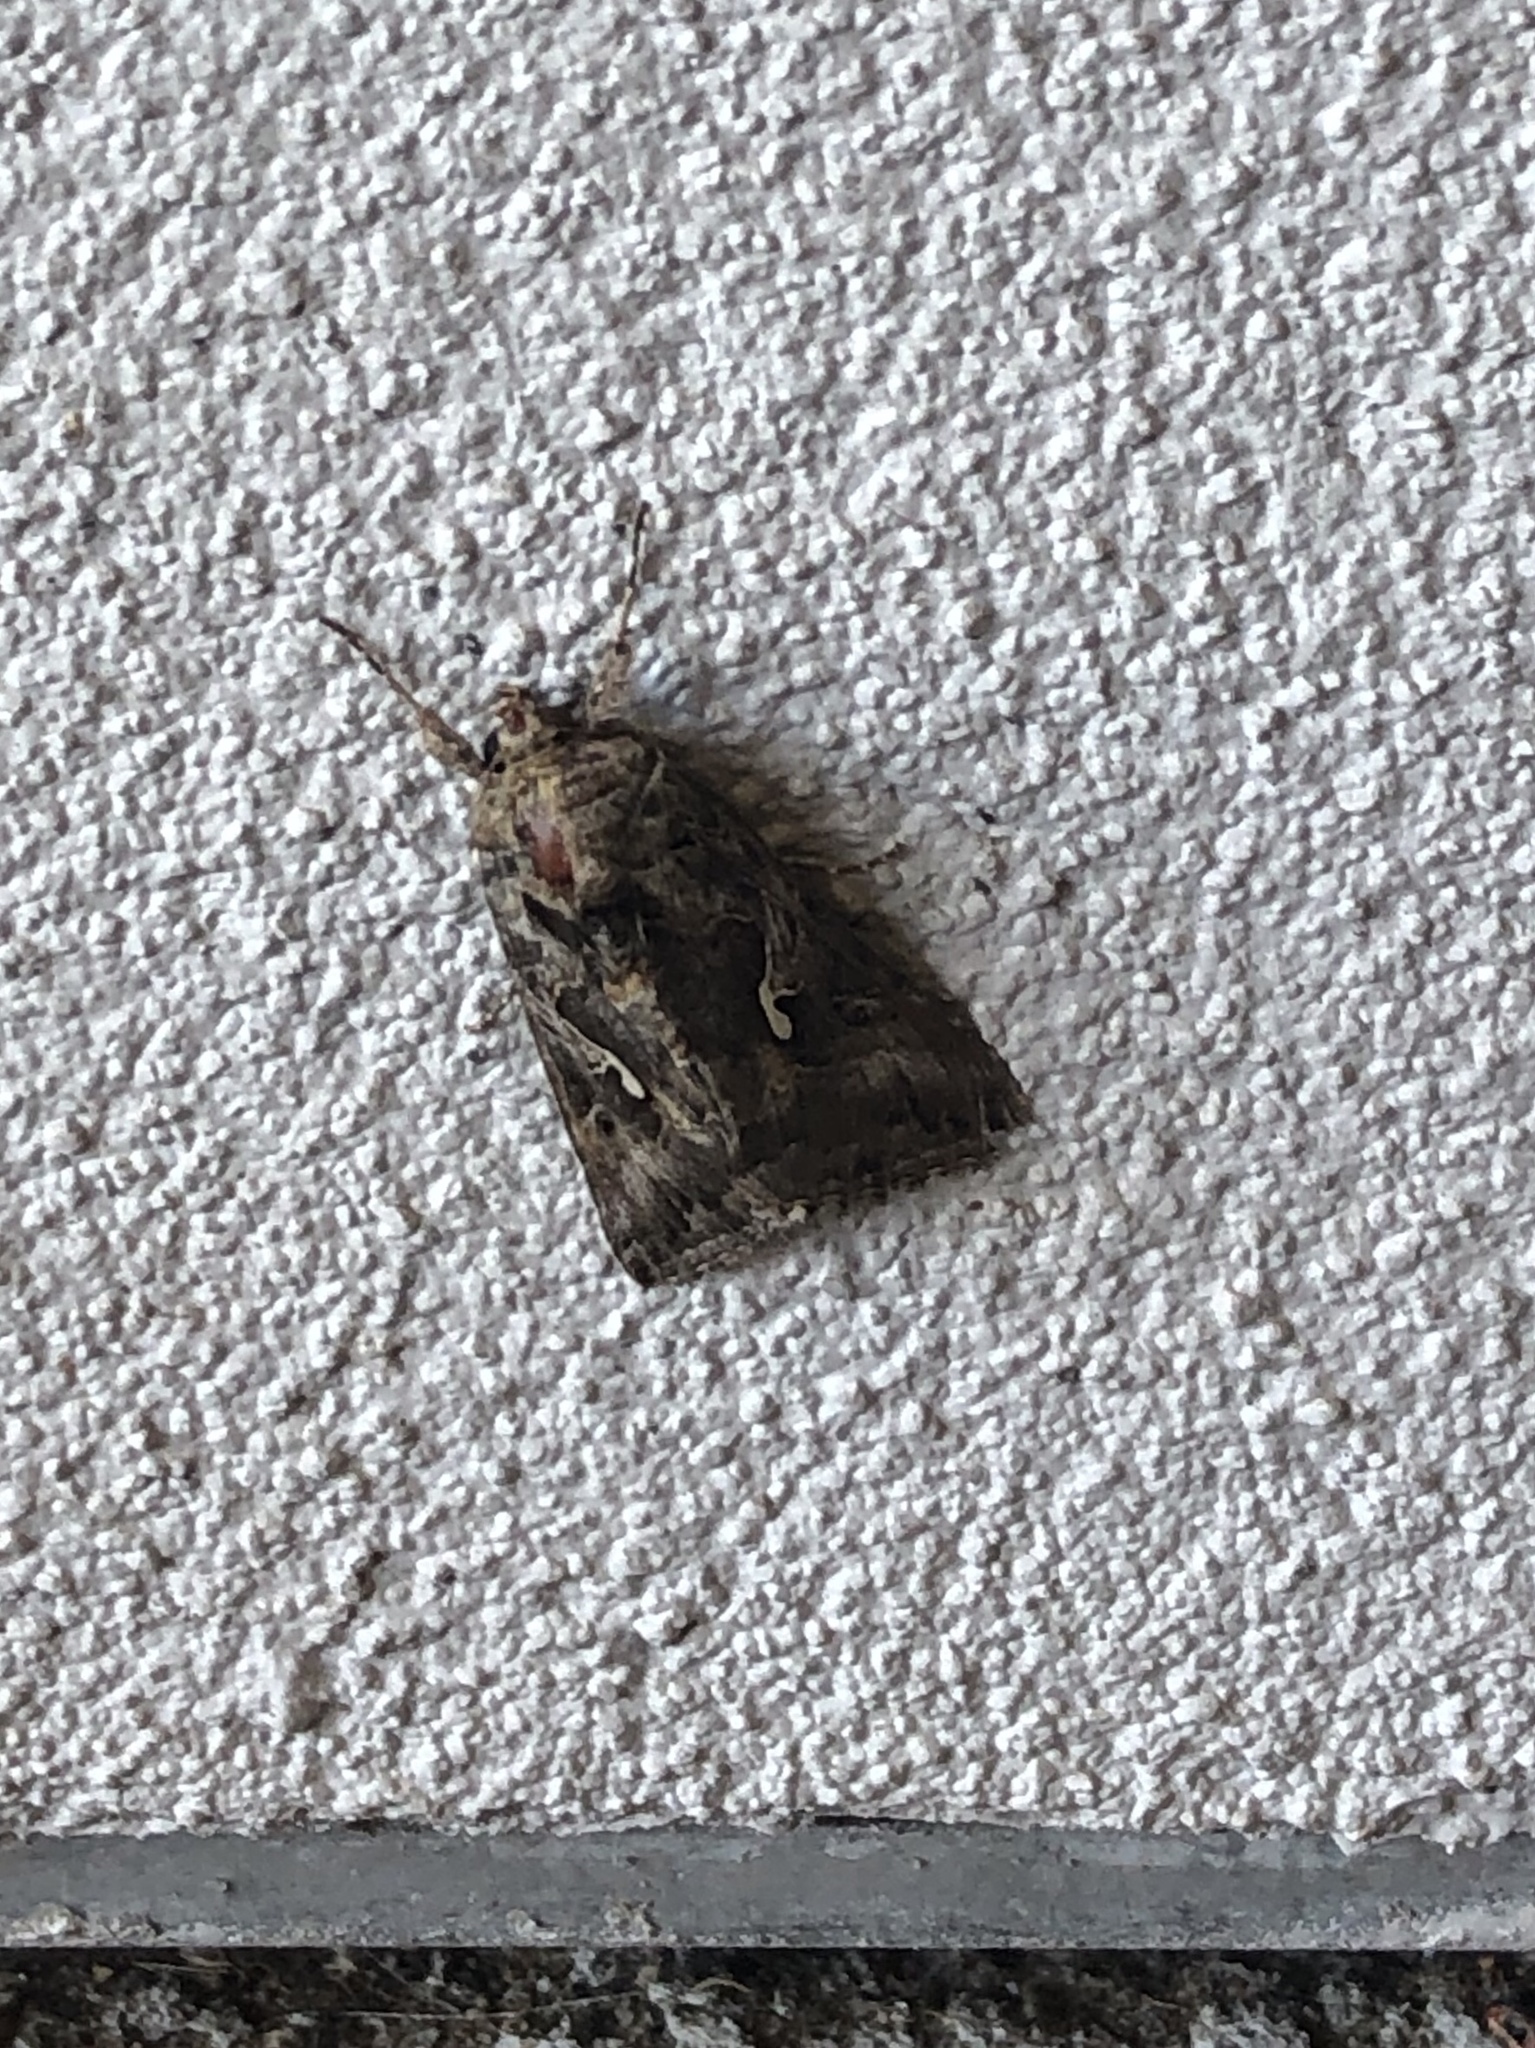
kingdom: Animalia
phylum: Arthropoda
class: Insecta
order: Lepidoptera
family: Noctuidae
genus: Autographa
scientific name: Autographa californica
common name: Alfalfa looper
